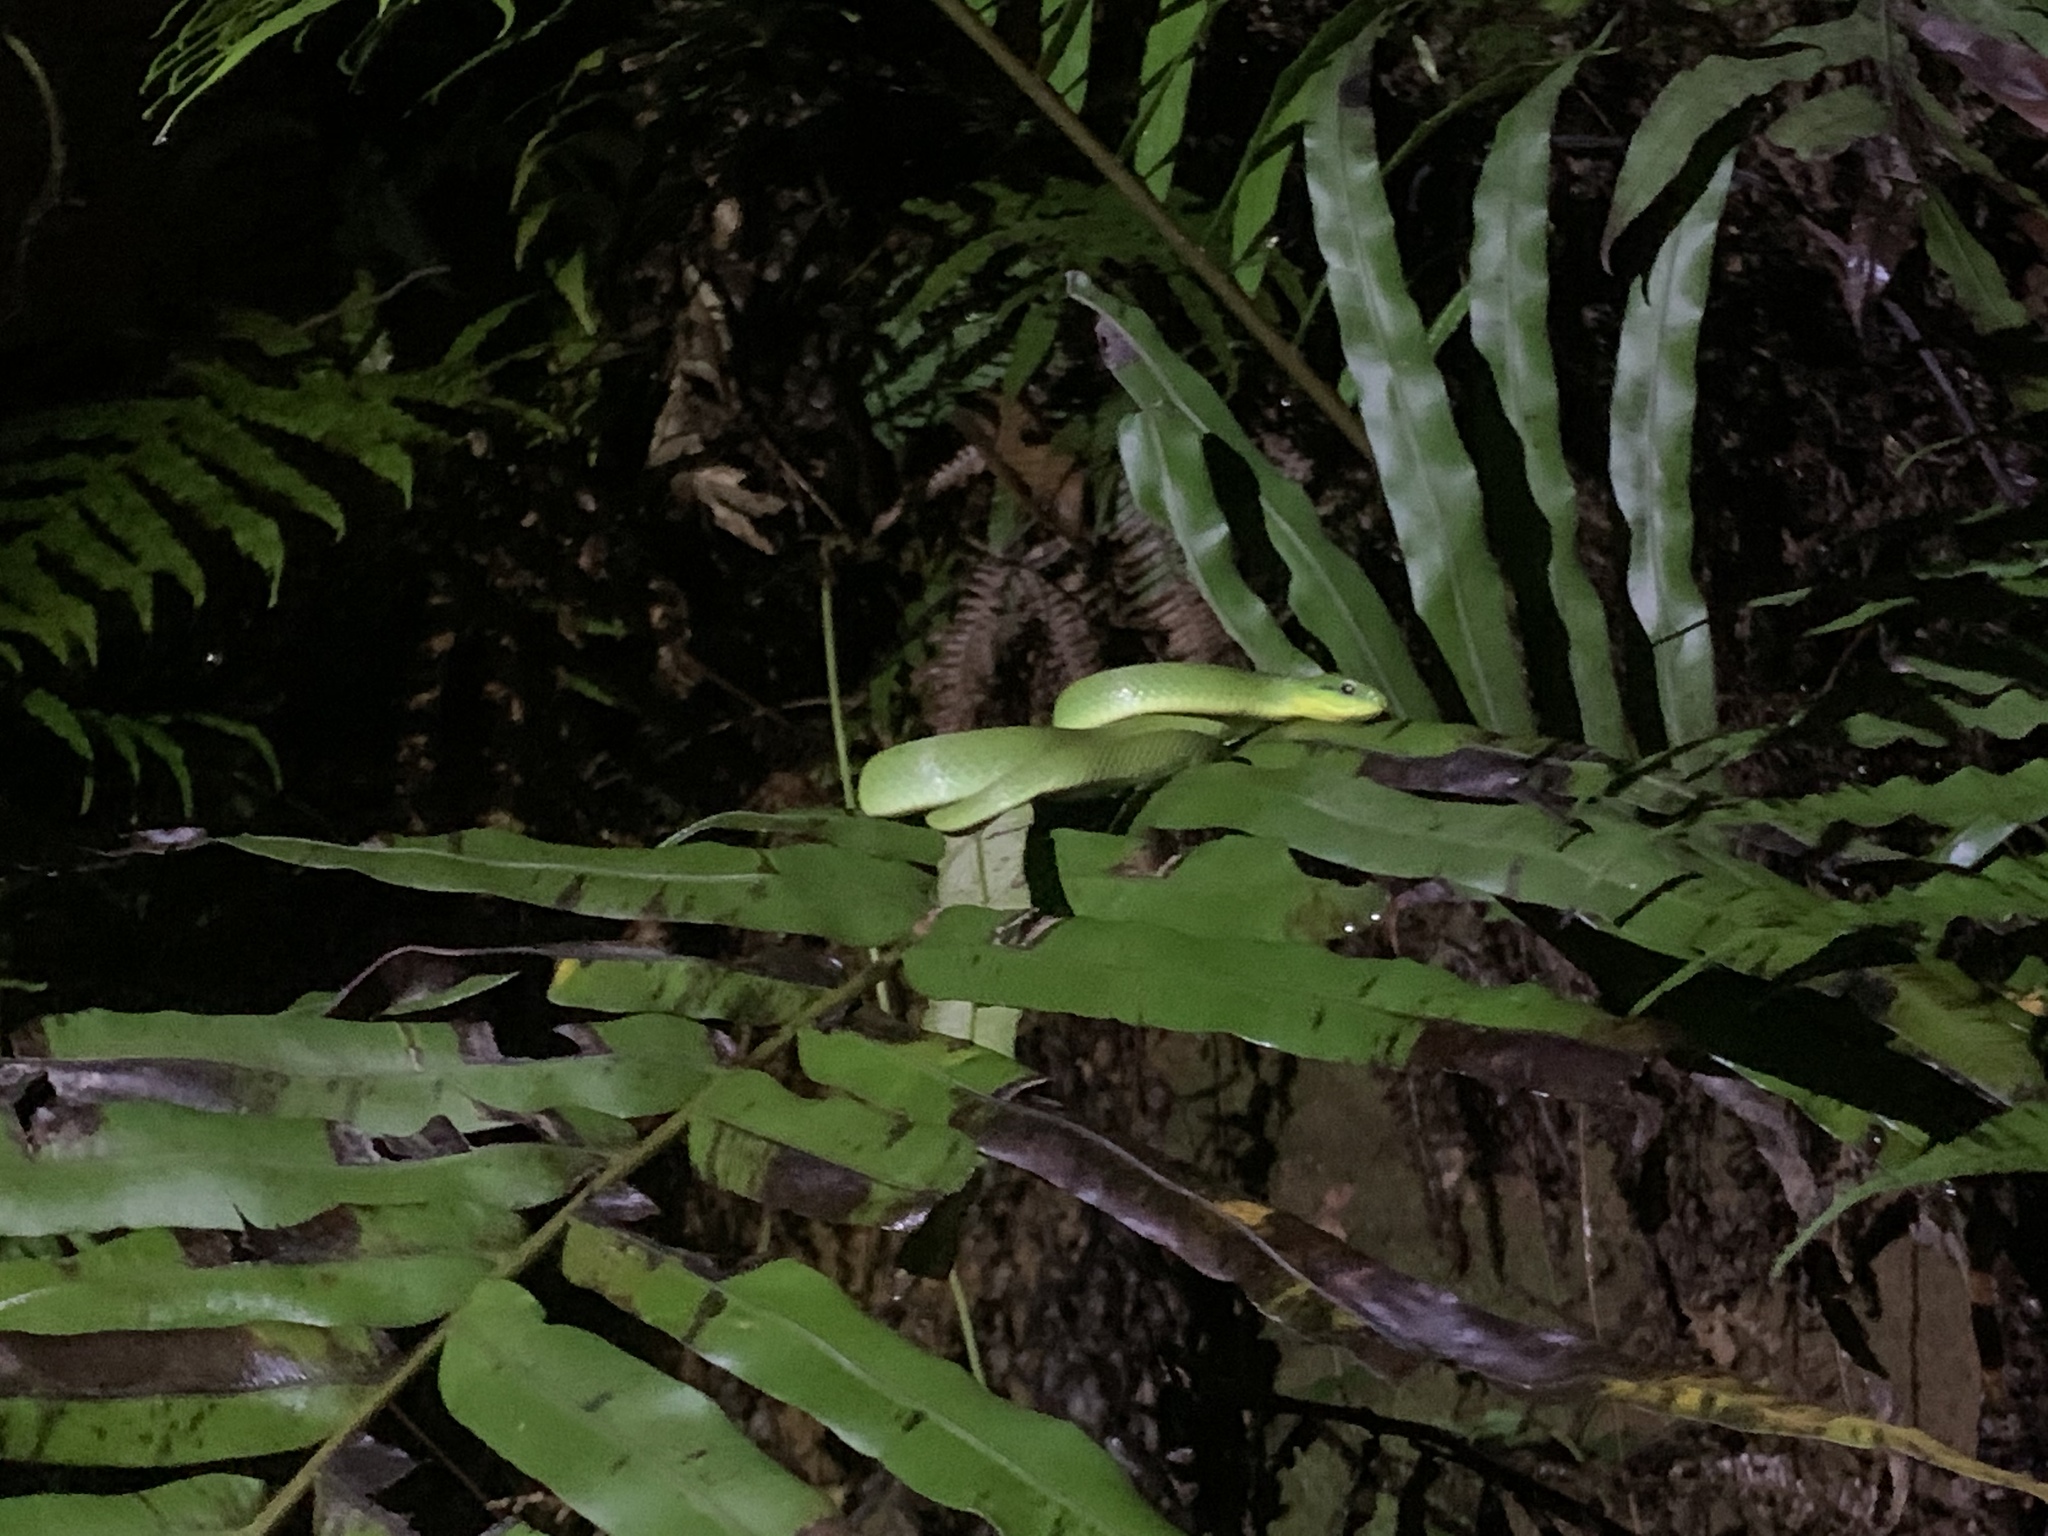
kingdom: Animalia
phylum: Chordata
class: Squamata
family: Colubridae
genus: Ptyas
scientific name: Ptyas major
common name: Chinese green snake
